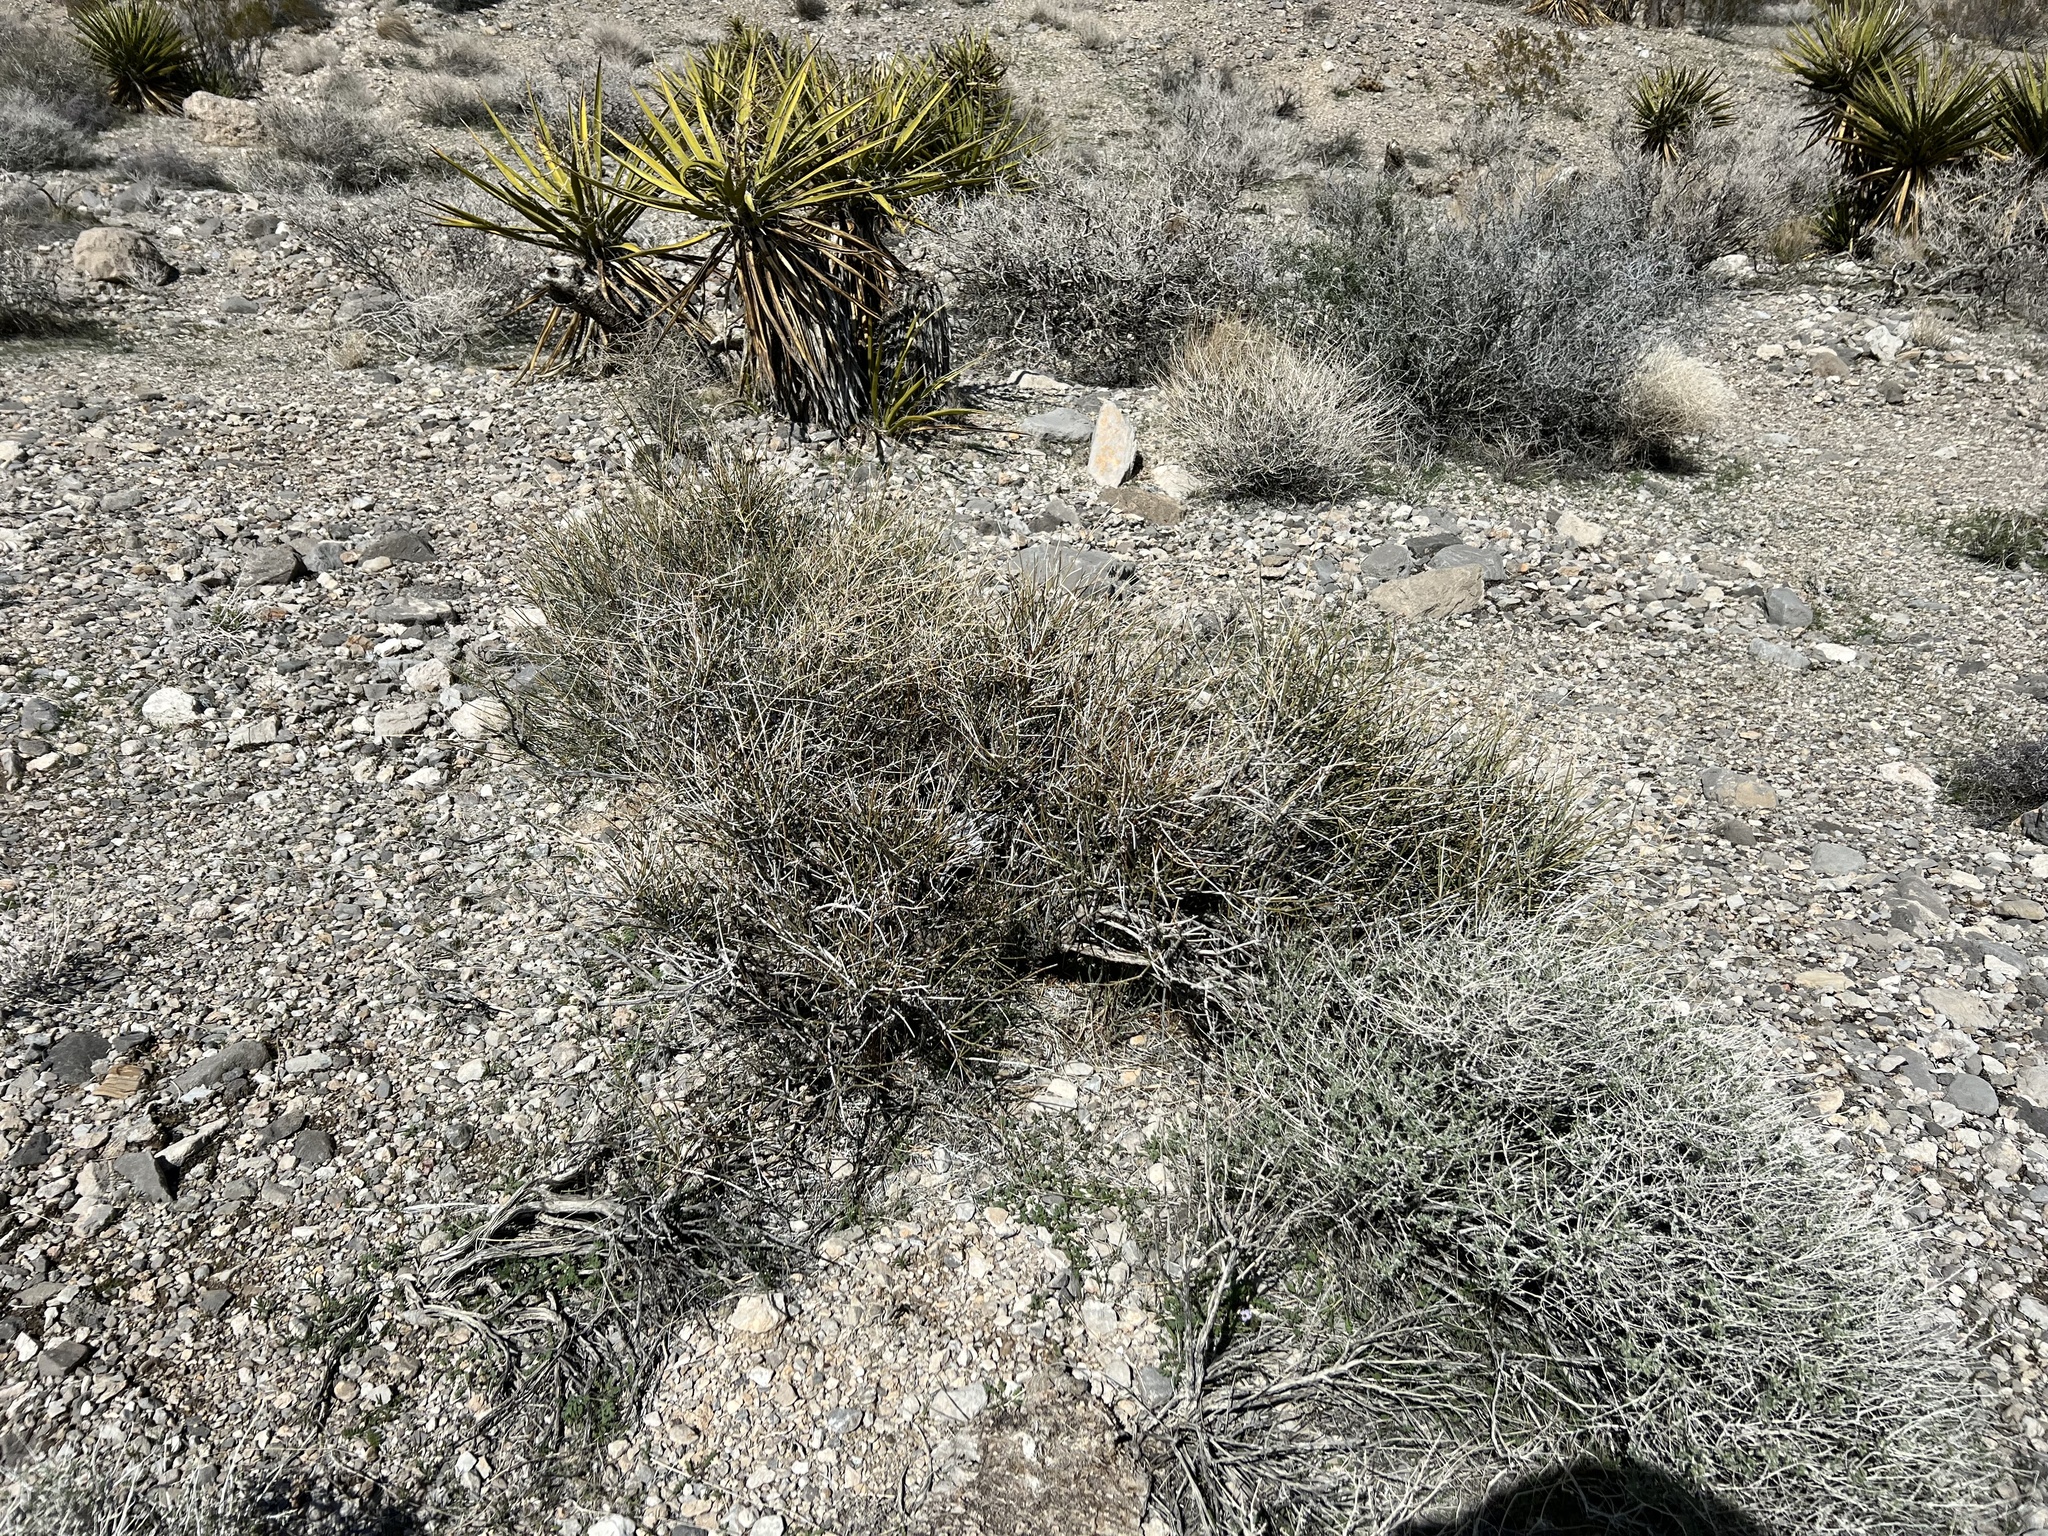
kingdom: Plantae
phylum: Tracheophyta
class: Gnetopsida
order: Ephedrales
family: Ephedraceae
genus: Ephedra
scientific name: Ephedra nevadensis
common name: Gray ephedra
